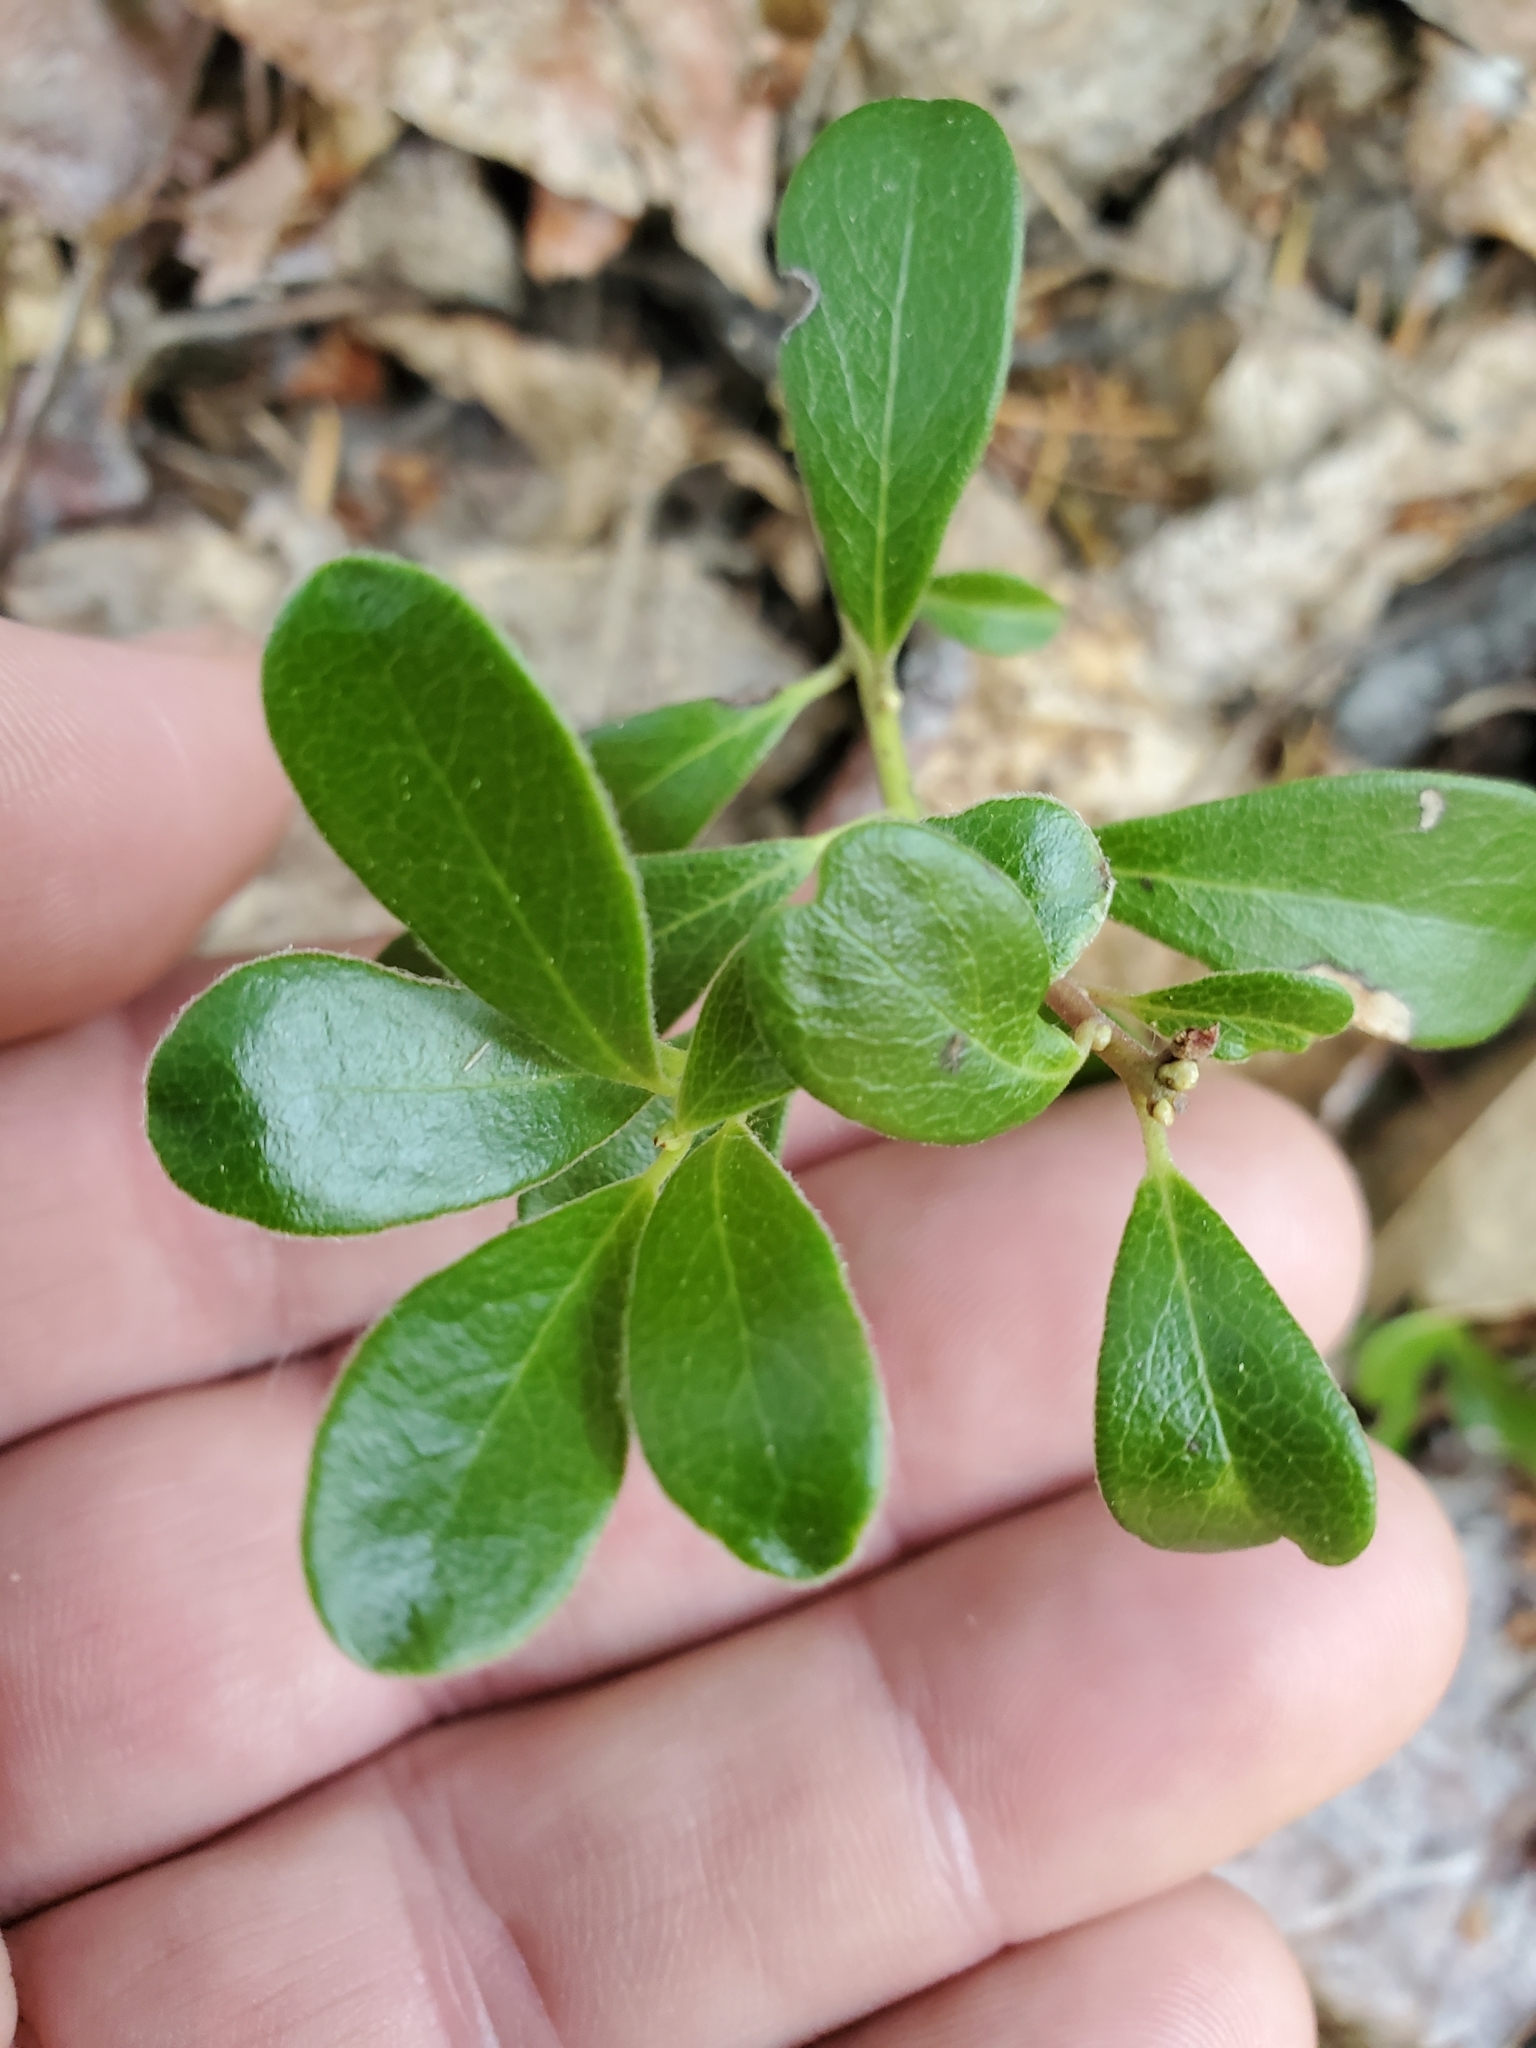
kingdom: Plantae
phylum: Tracheophyta
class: Magnoliopsida
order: Ericales
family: Ericaceae
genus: Arctostaphylos
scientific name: Arctostaphylos uva-ursi
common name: Bearberry
